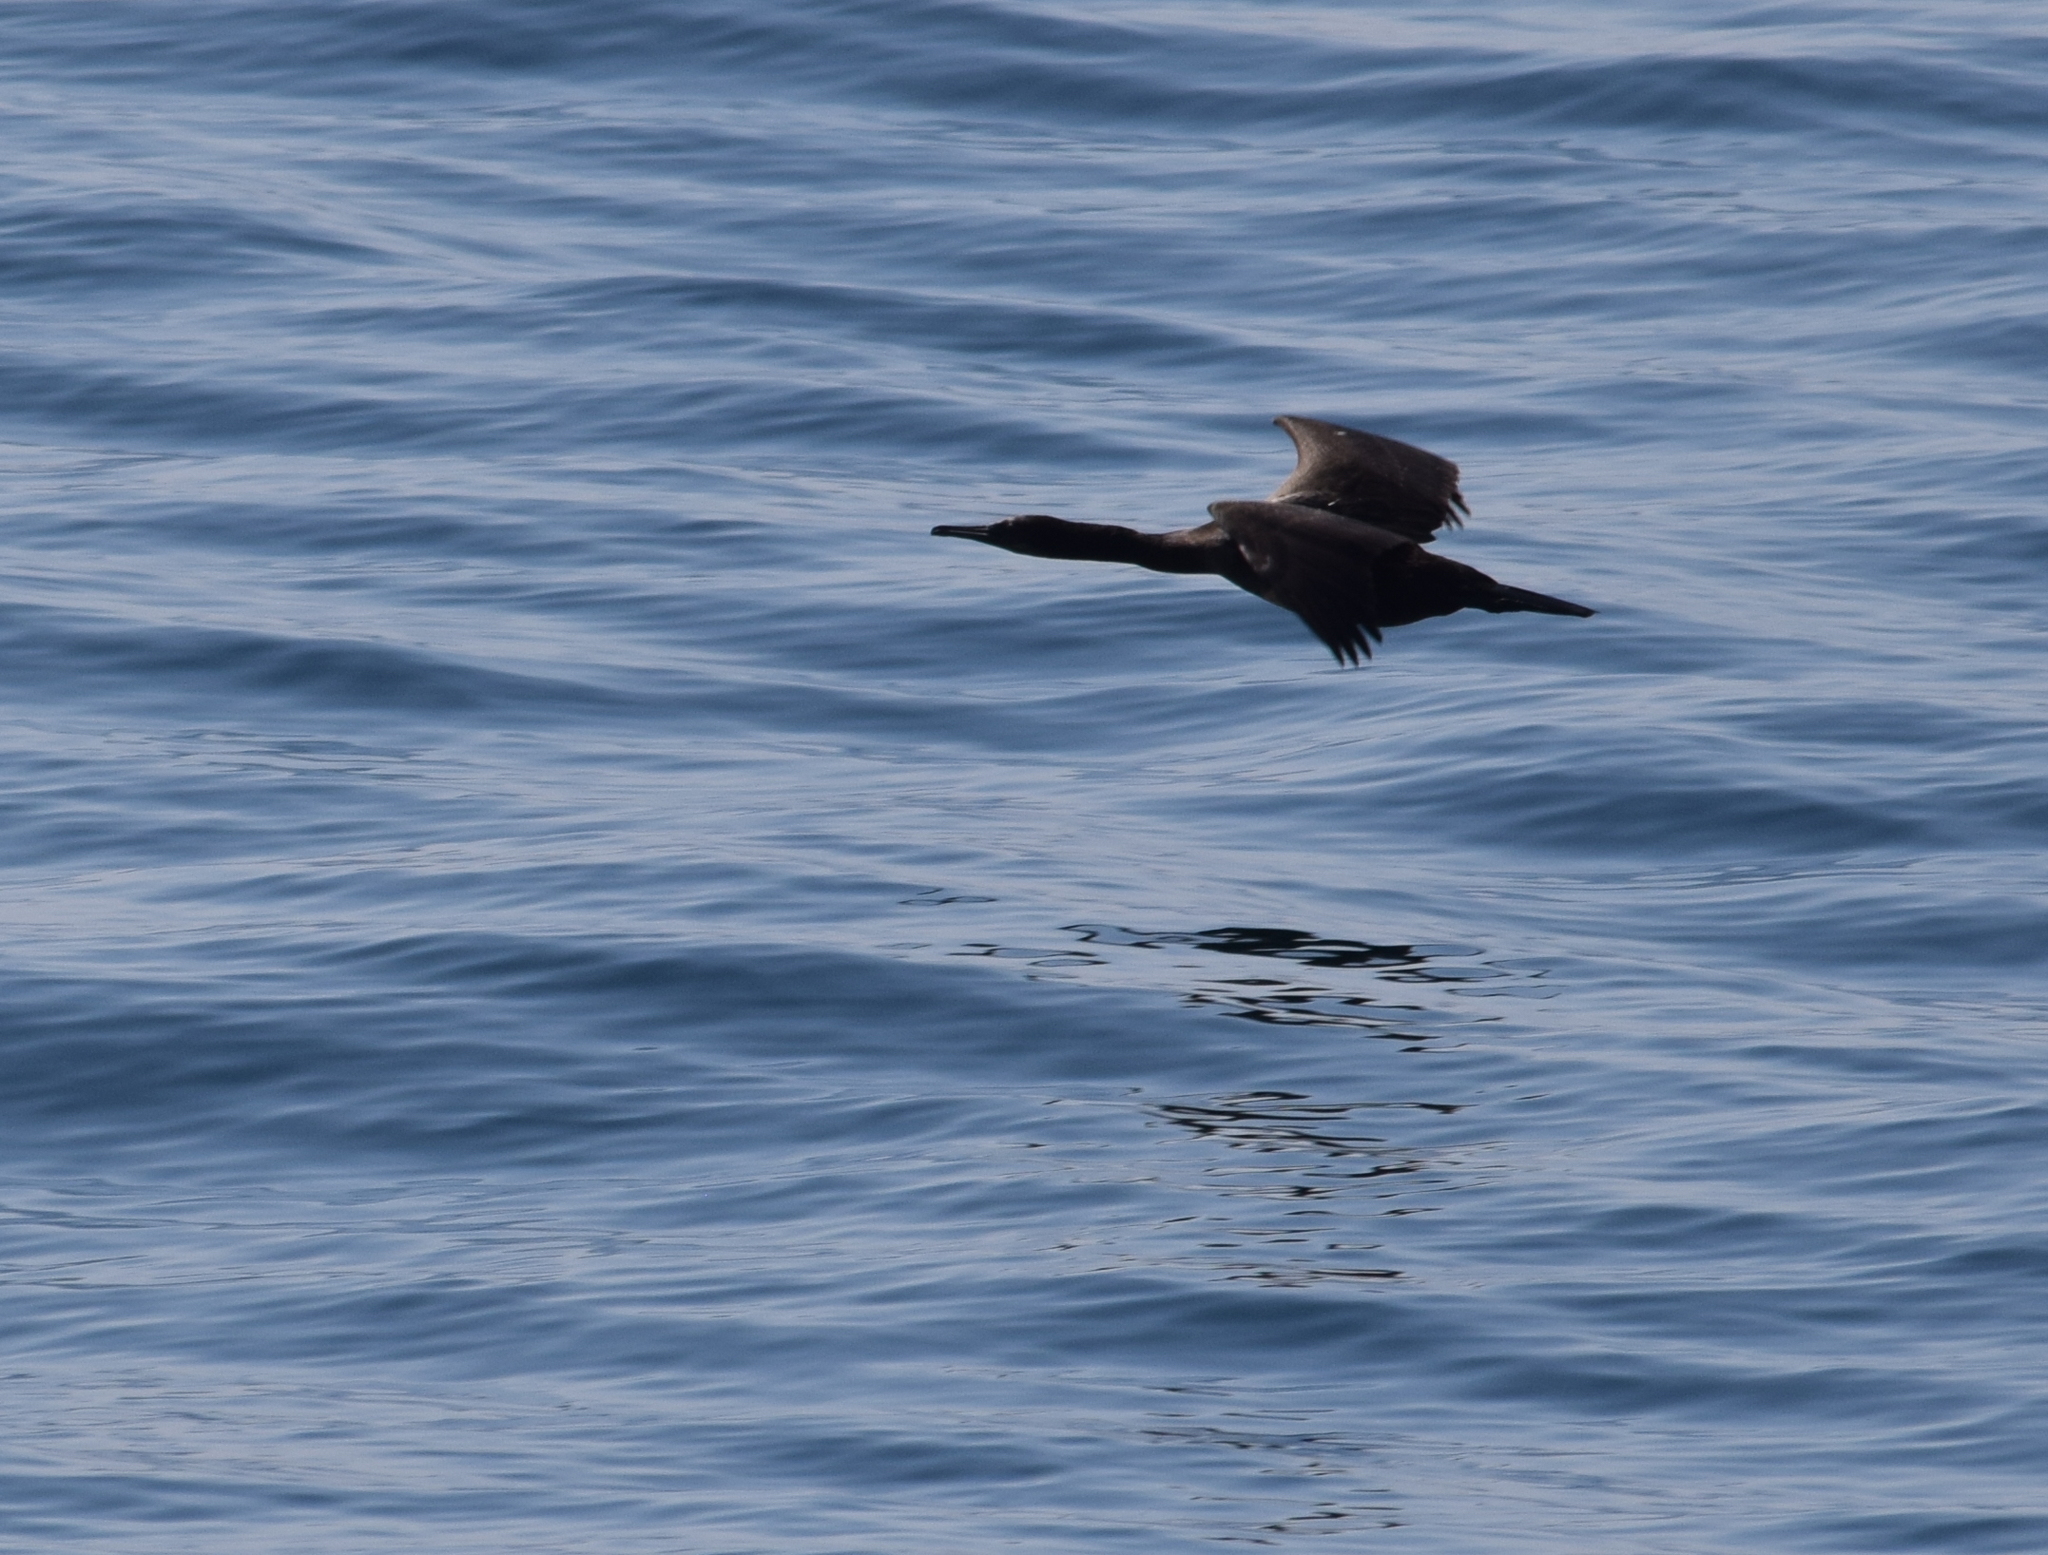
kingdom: Animalia
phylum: Chordata
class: Aves
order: Suliformes
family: Phalacrocoracidae
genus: Urile
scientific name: Urile penicillatus
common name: Brandt's cormorant
